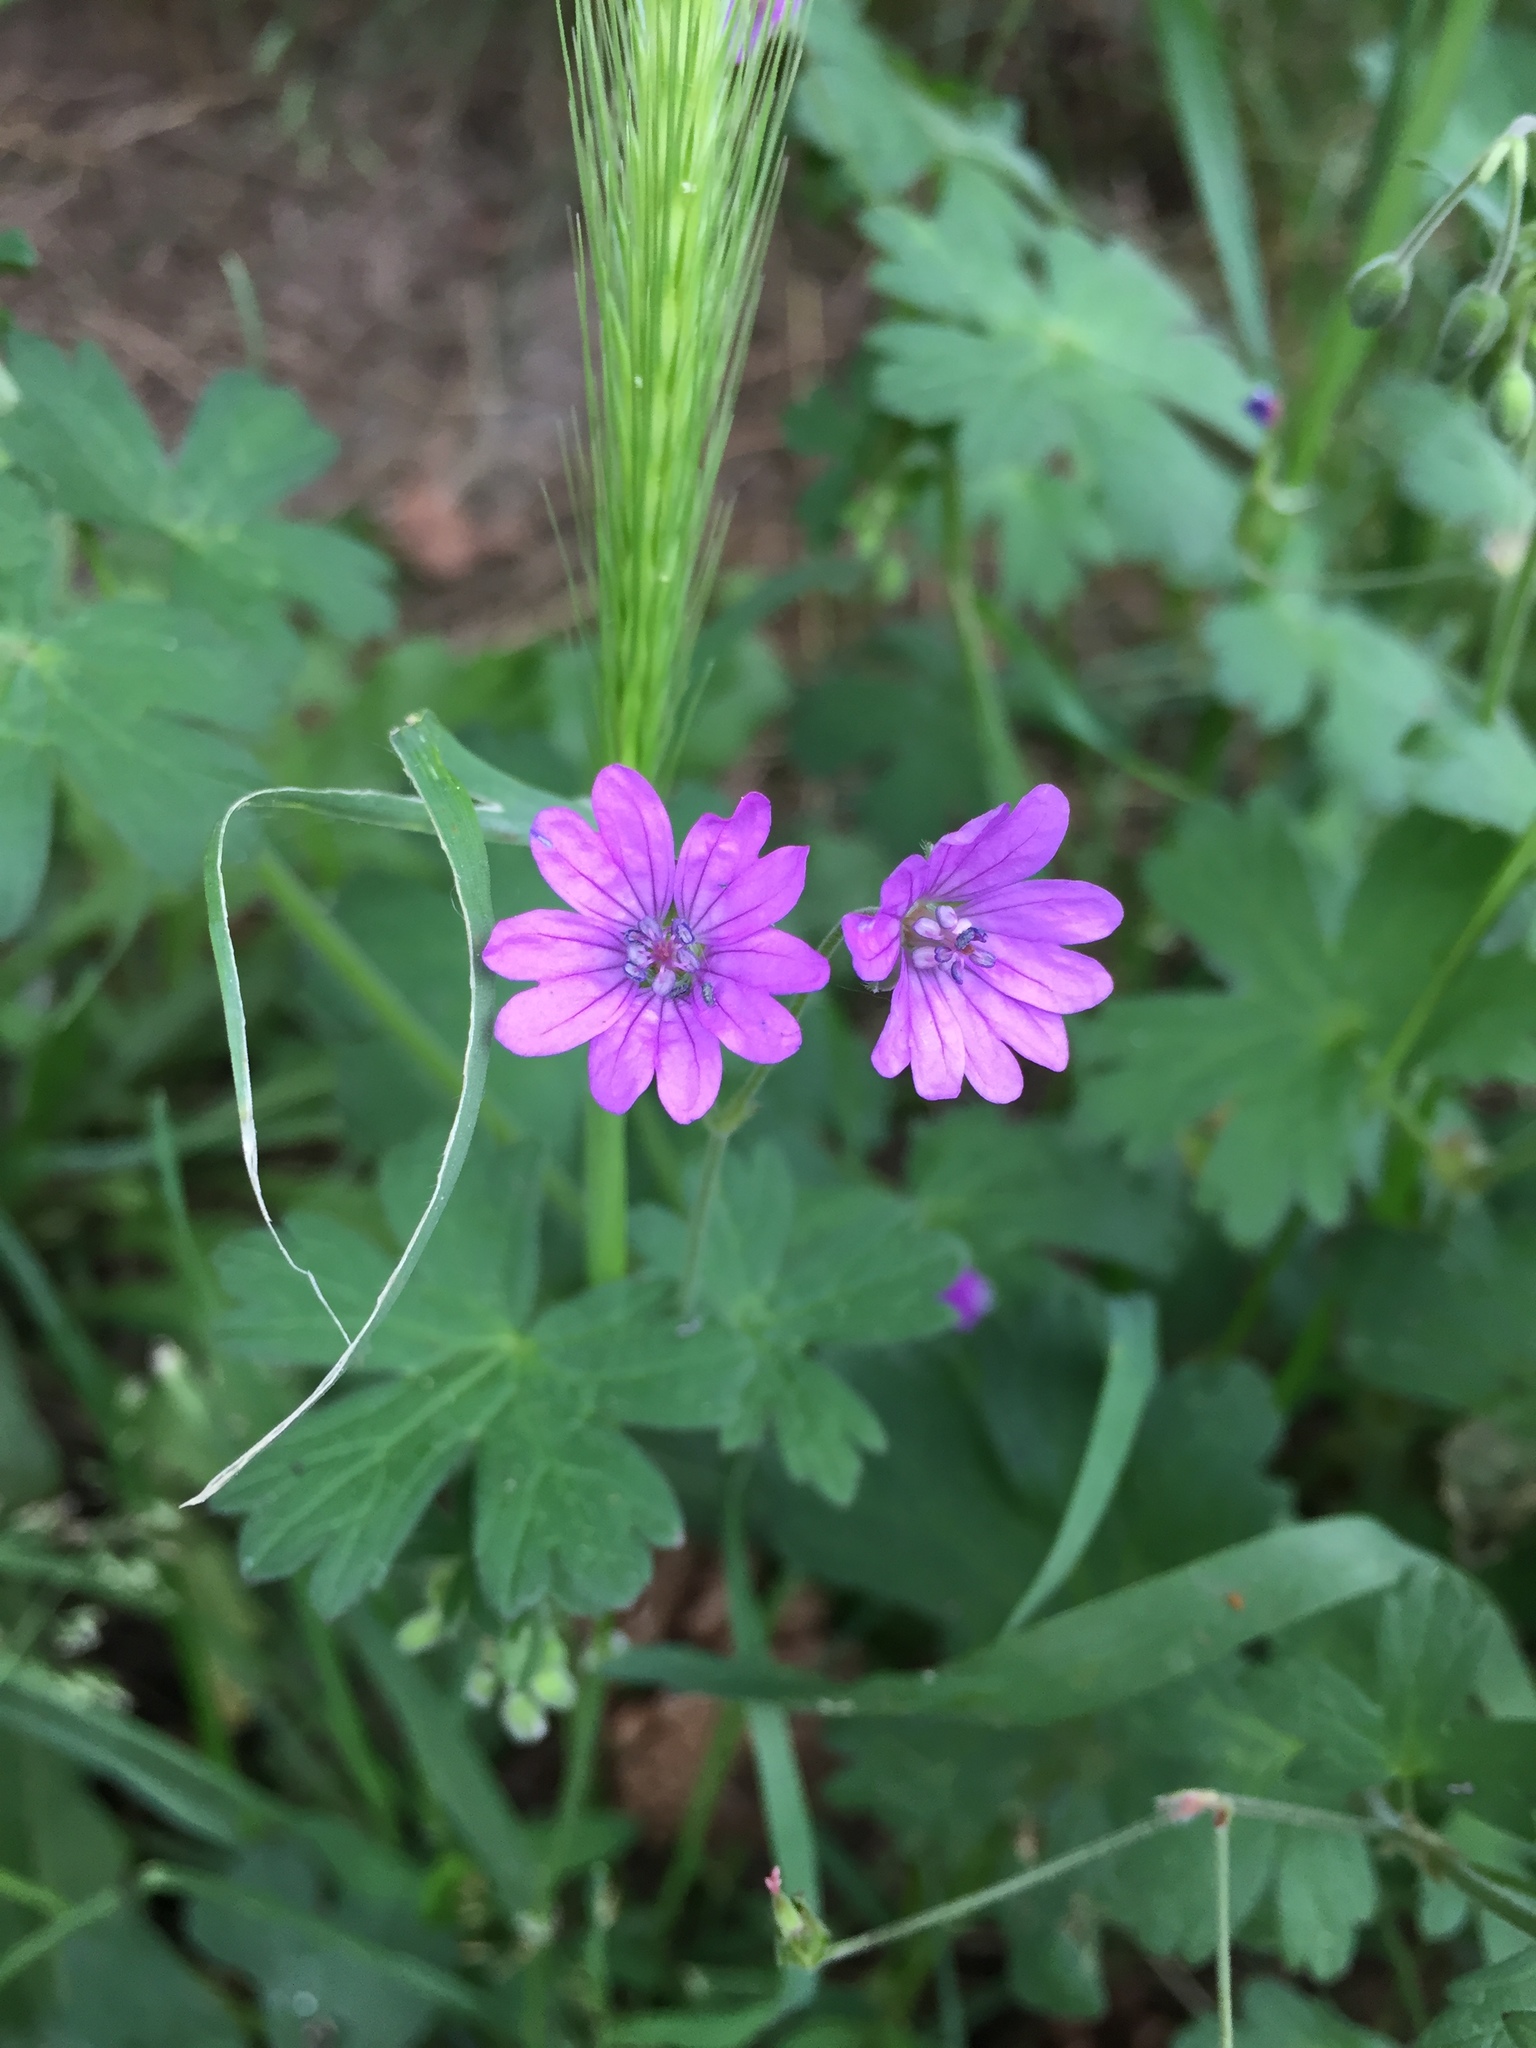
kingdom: Plantae
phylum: Tracheophyta
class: Magnoliopsida
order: Geraniales
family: Geraniaceae
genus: Geranium
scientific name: Geranium pyrenaicum
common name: Hedgerow crane's-bill
